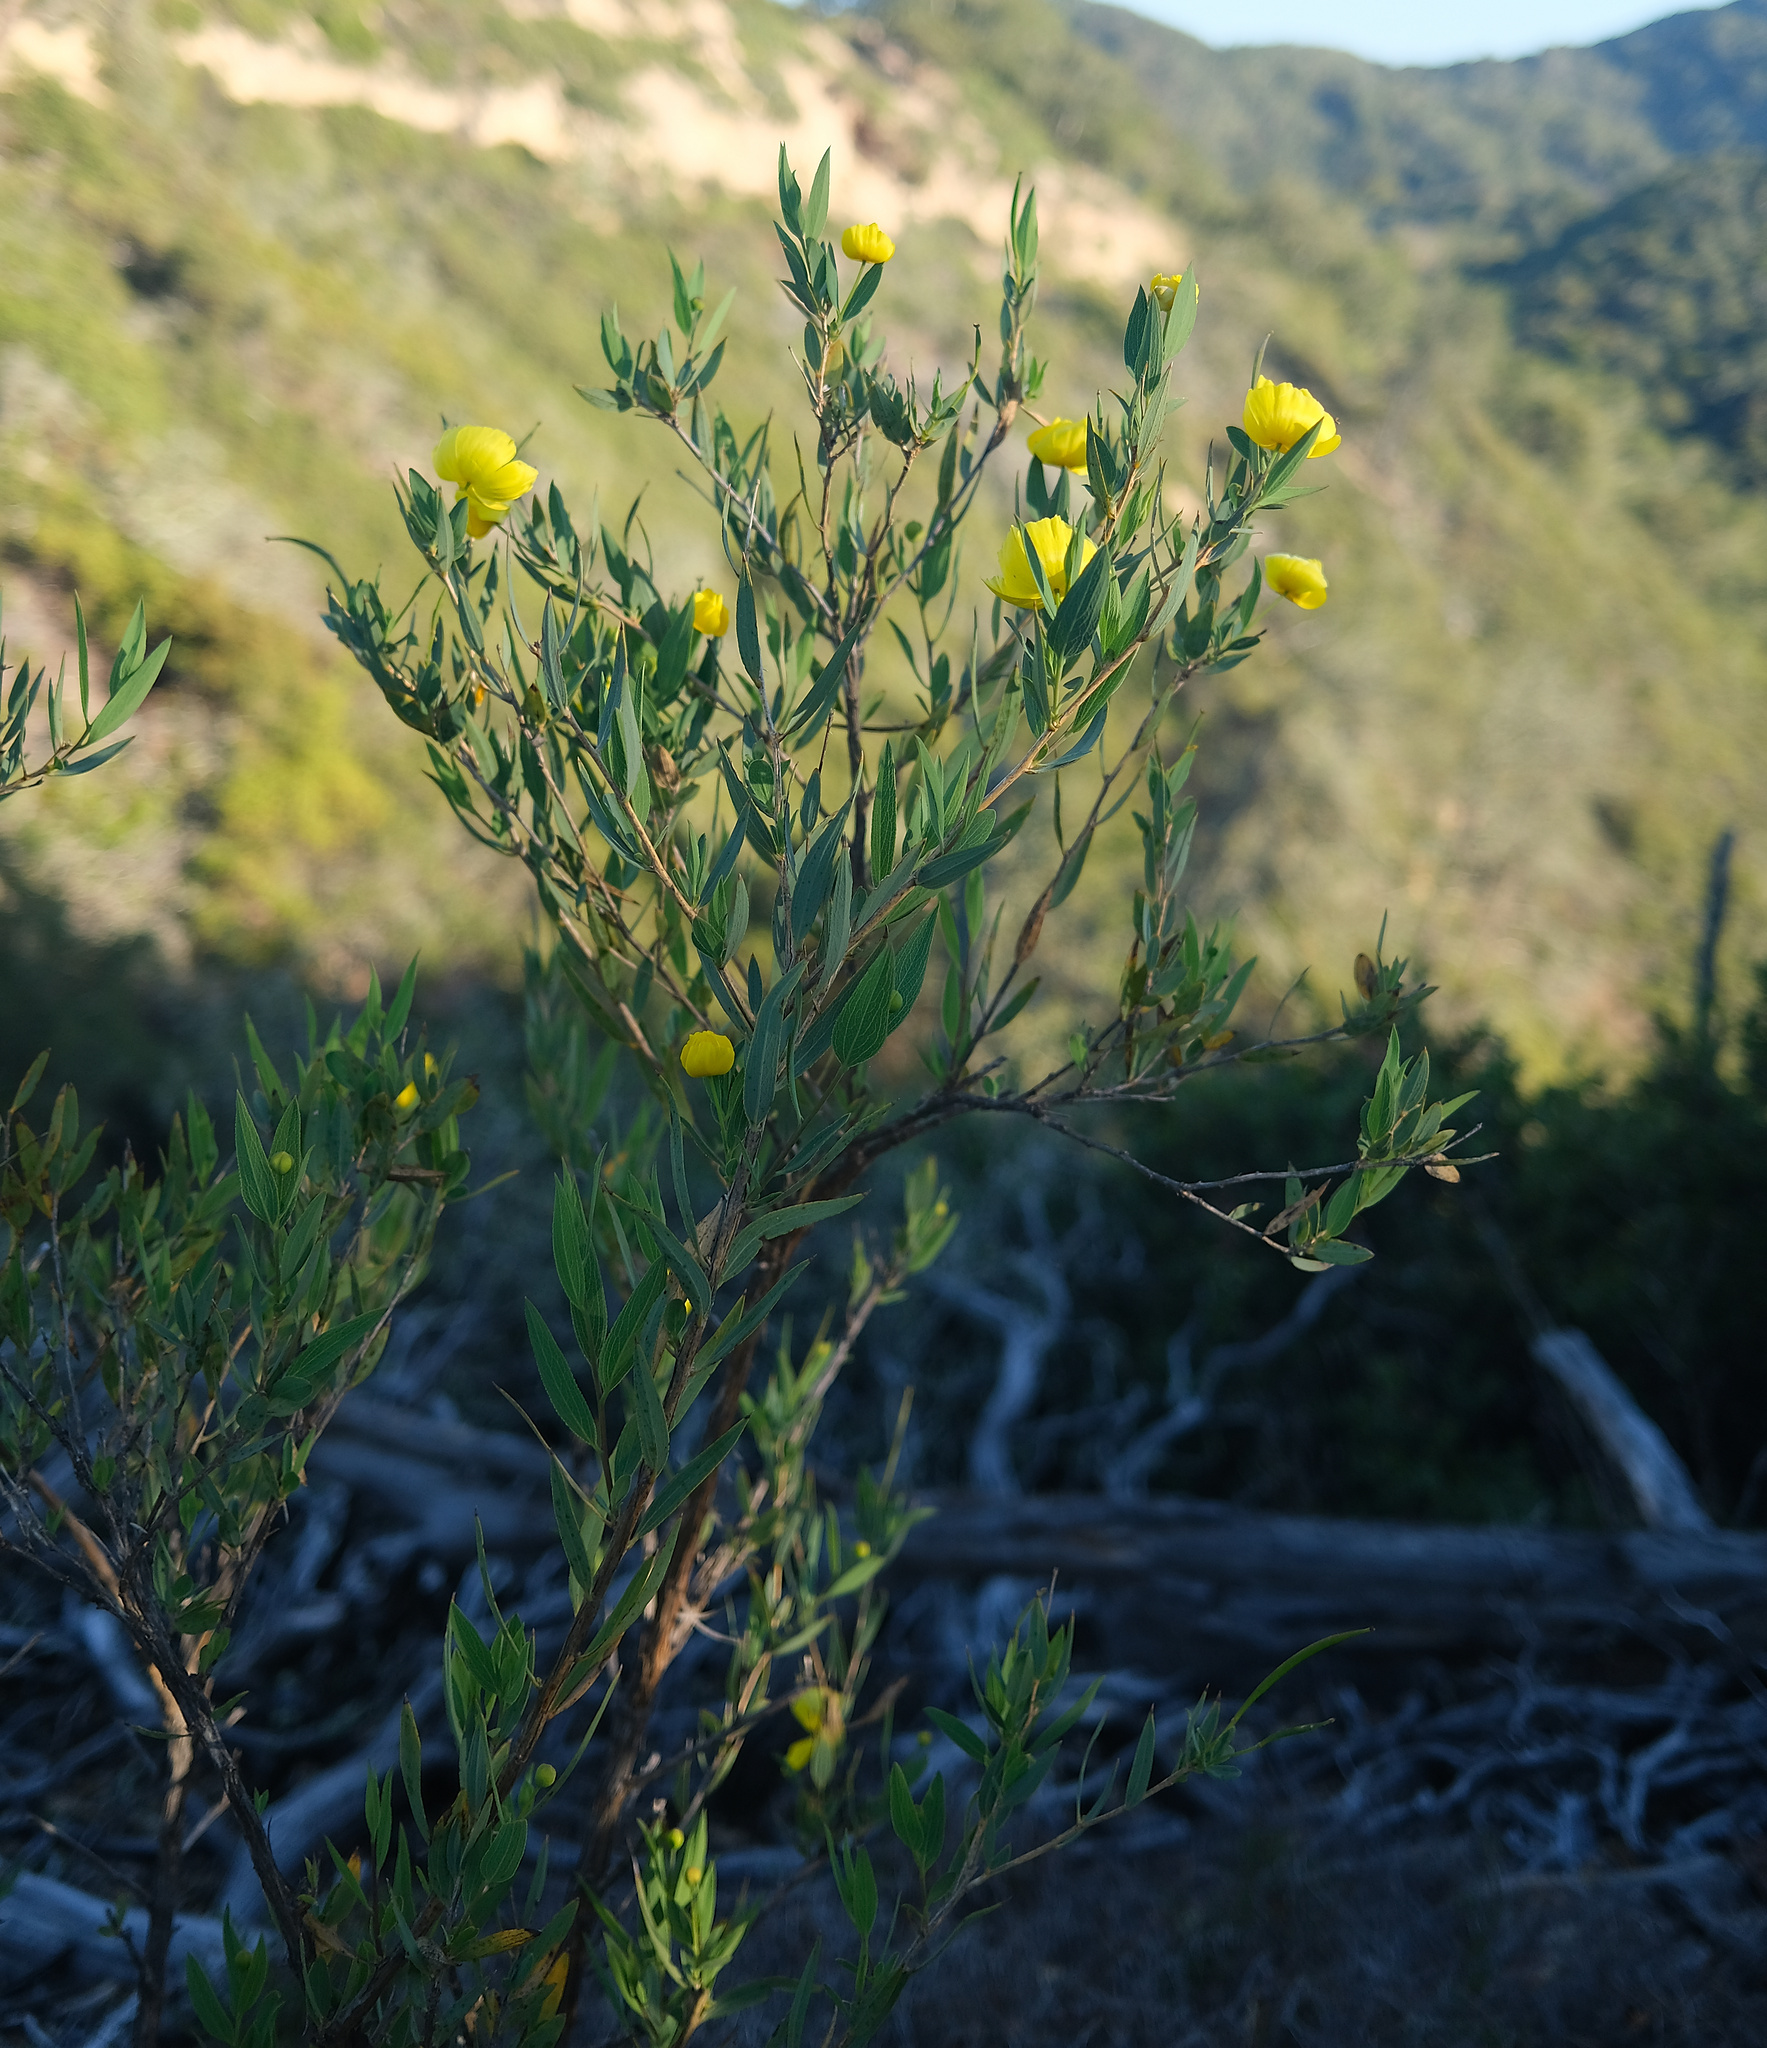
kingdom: Plantae
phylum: Tracheophyta
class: Magnoliopsida
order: Ranunculales
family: Papaveraceae
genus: Dendromecon
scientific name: Dendromecon rigida
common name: Tree poppy
